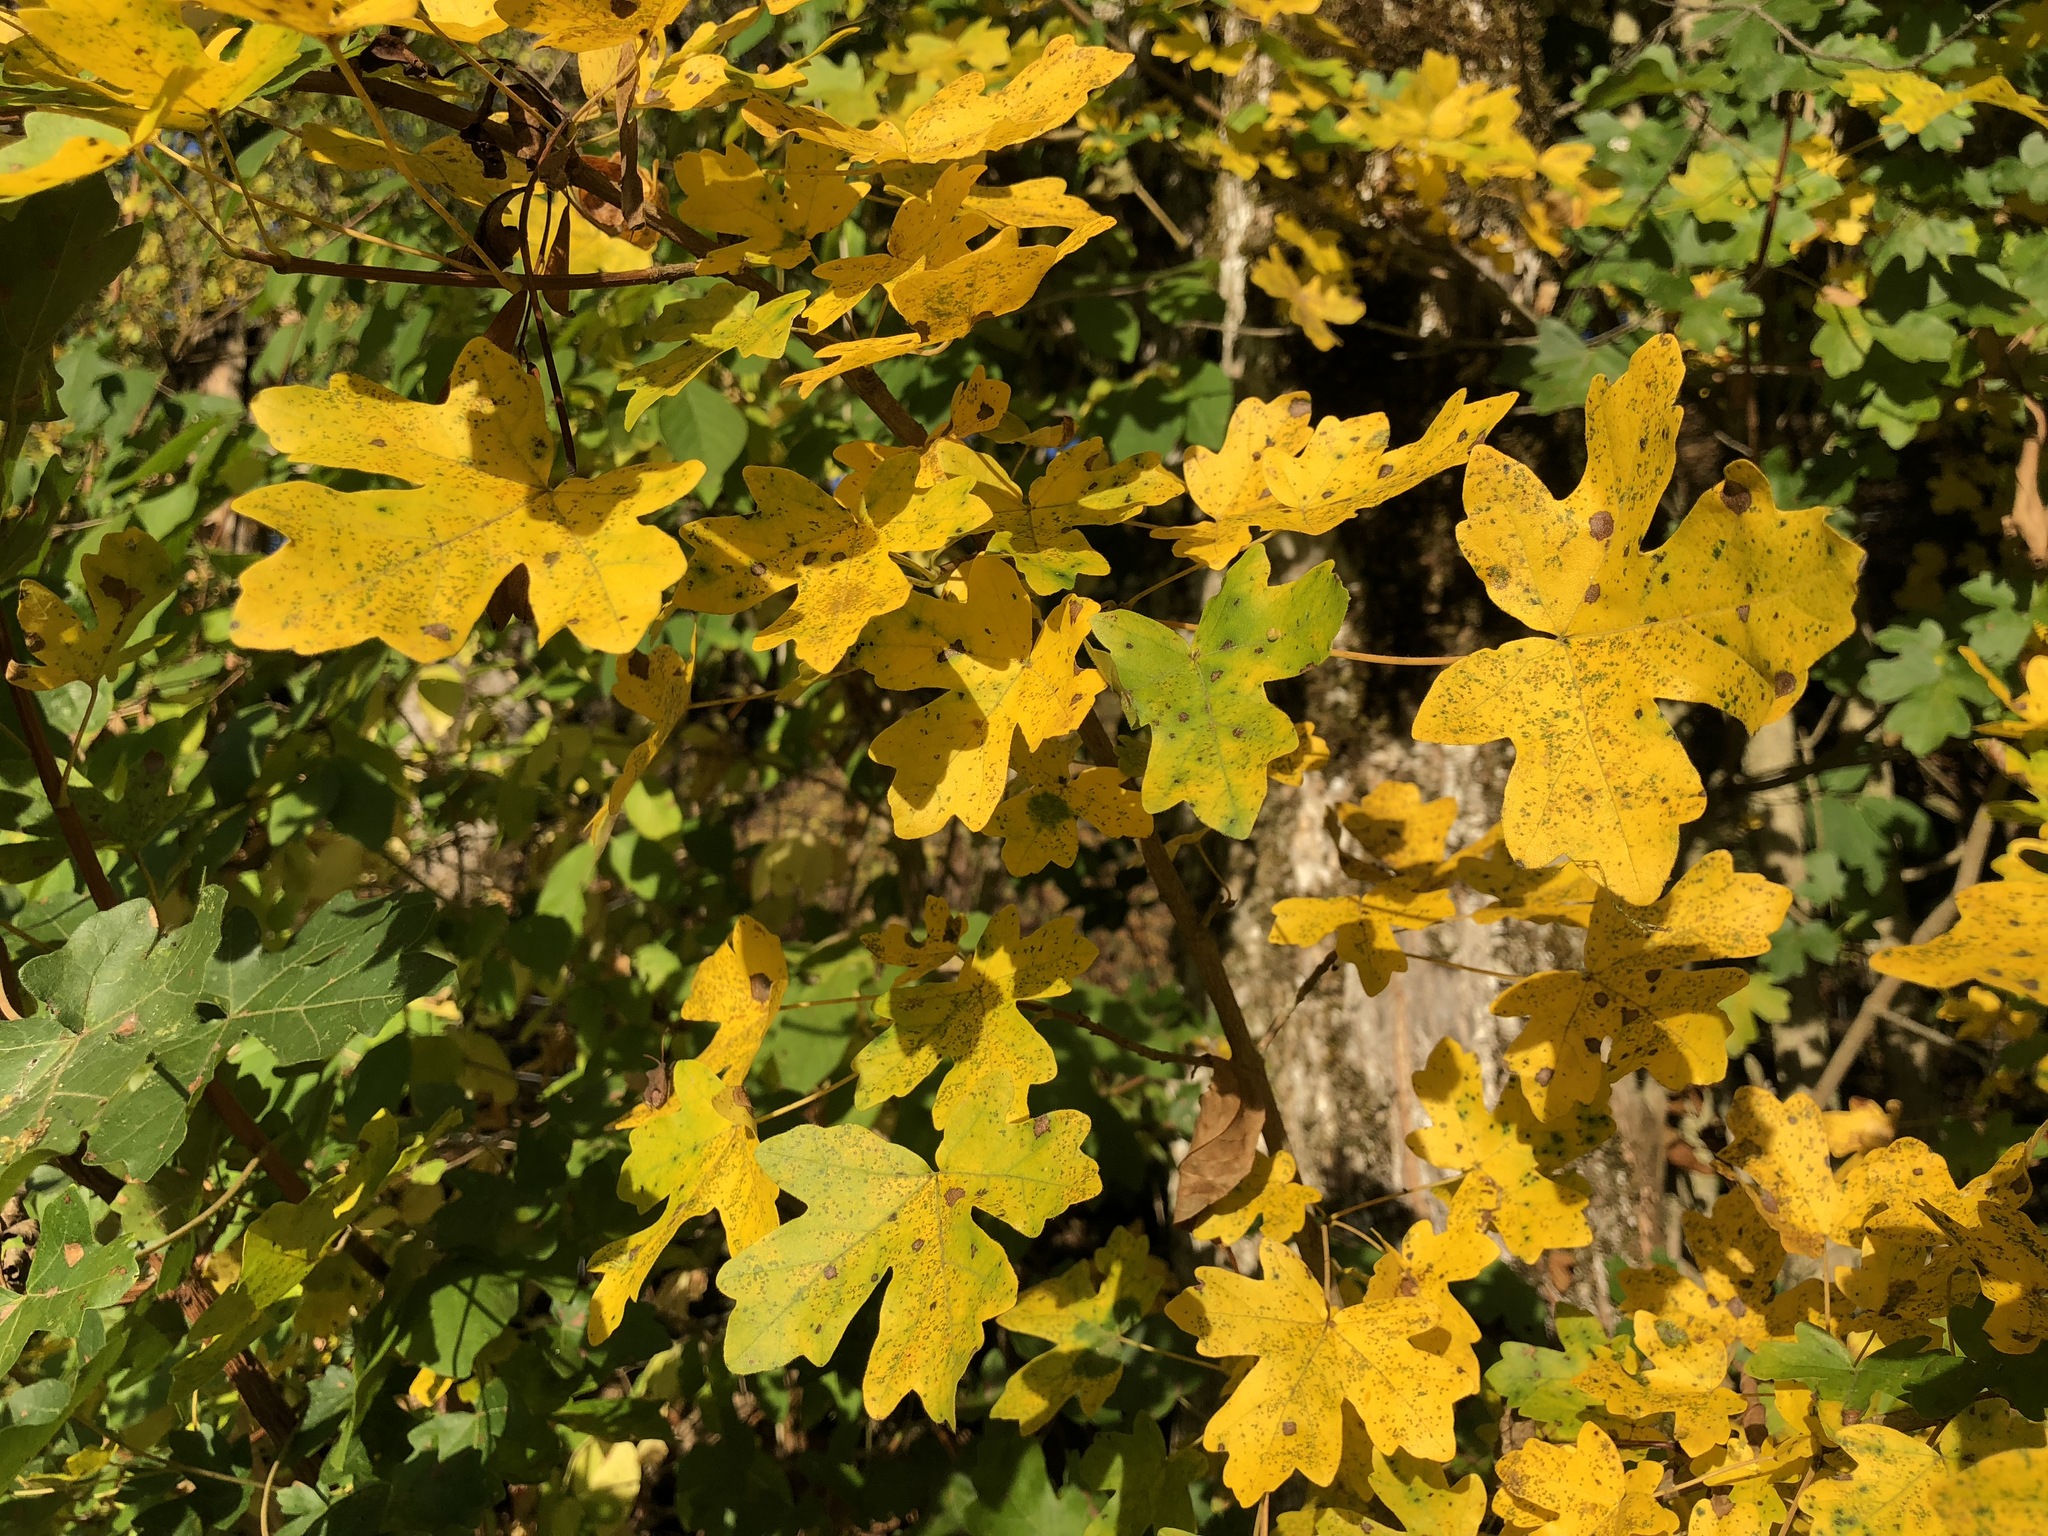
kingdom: Plantae
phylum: Tracheophyta
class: Magnoliopsida
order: Sapindales
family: Sapindaceae
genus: Acer
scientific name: Acer campestre
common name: Field maple
